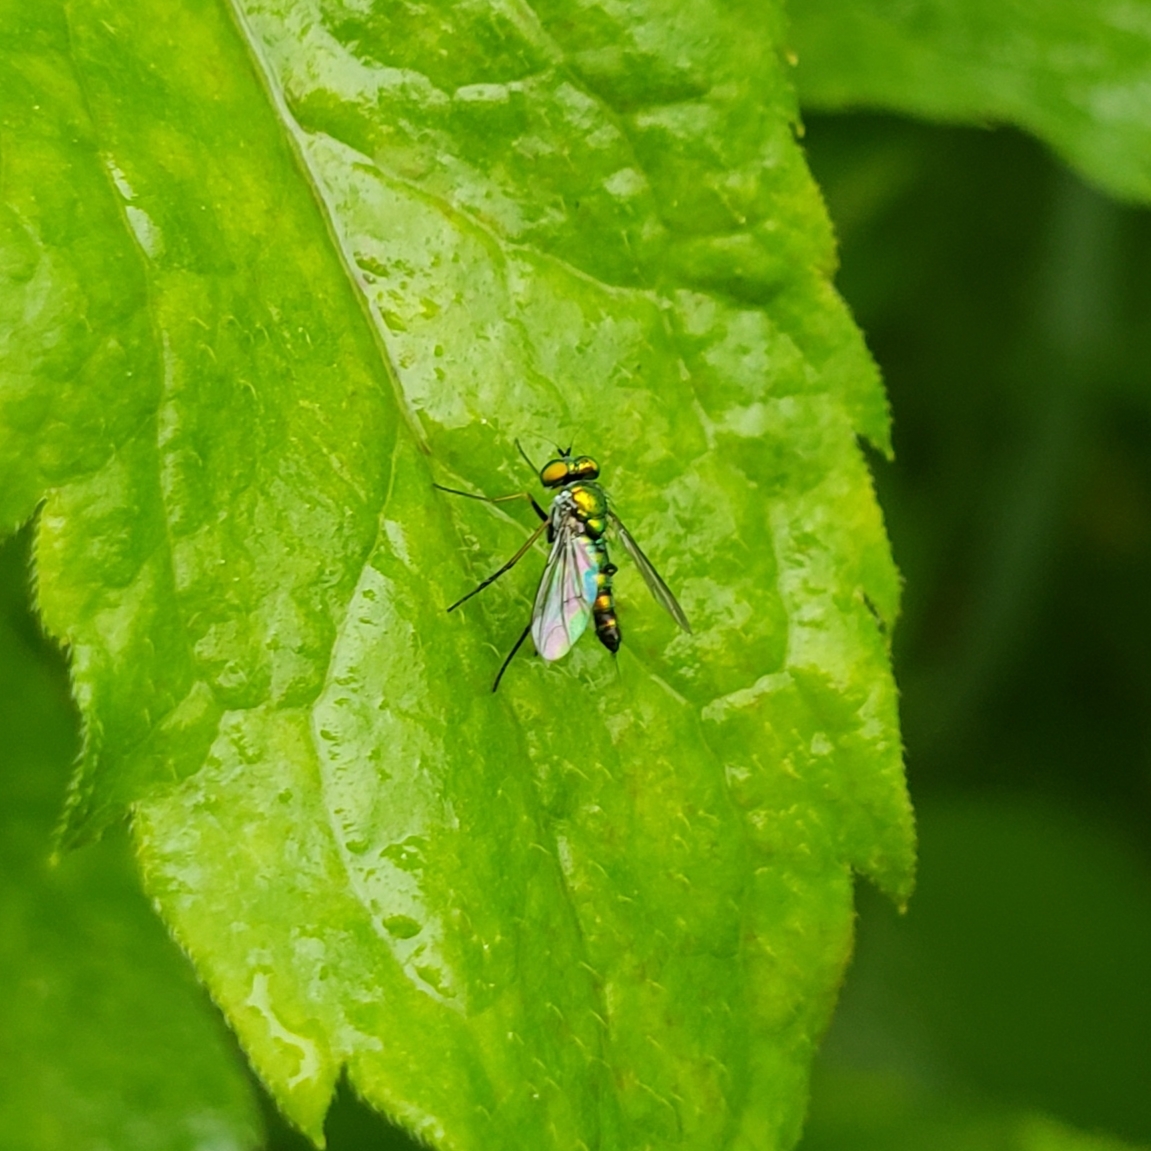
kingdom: Animalia
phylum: Arthropoda
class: Insecta
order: Diptera
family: Dolichopodidae
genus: Condylostylus
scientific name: Condylostylus caudatus
